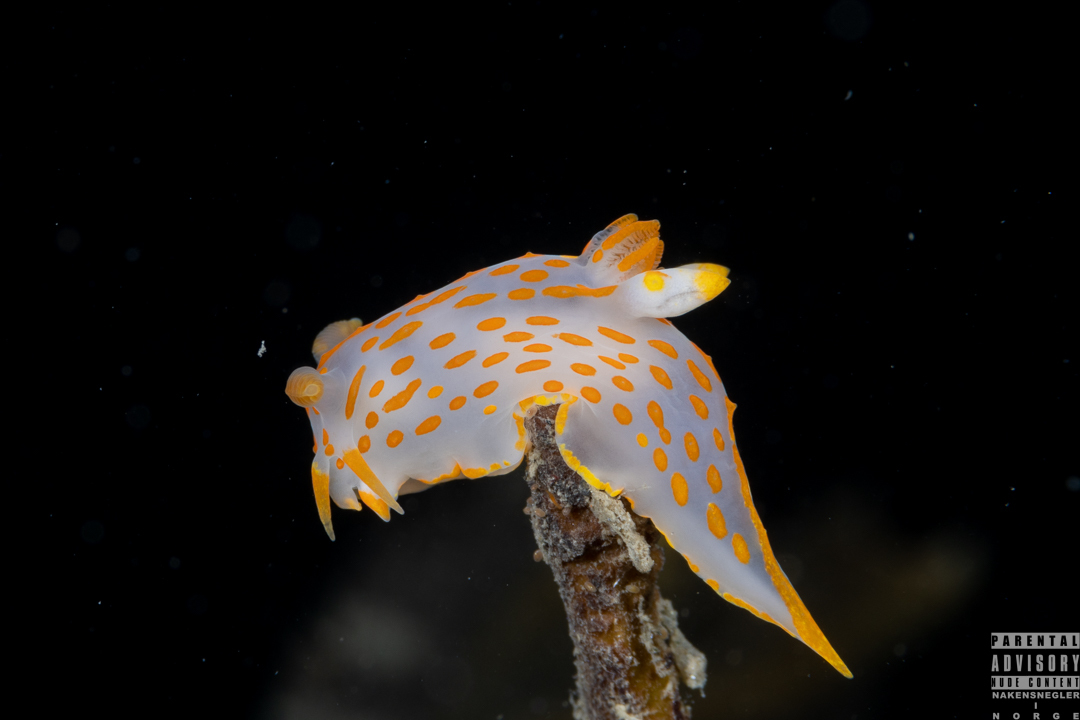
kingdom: Animalia
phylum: Mollusca
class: Gastropoda
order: Nudibranchia
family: Polyceridae
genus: Polycera
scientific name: Polycera quadrilineata
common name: Four-striped polycera
